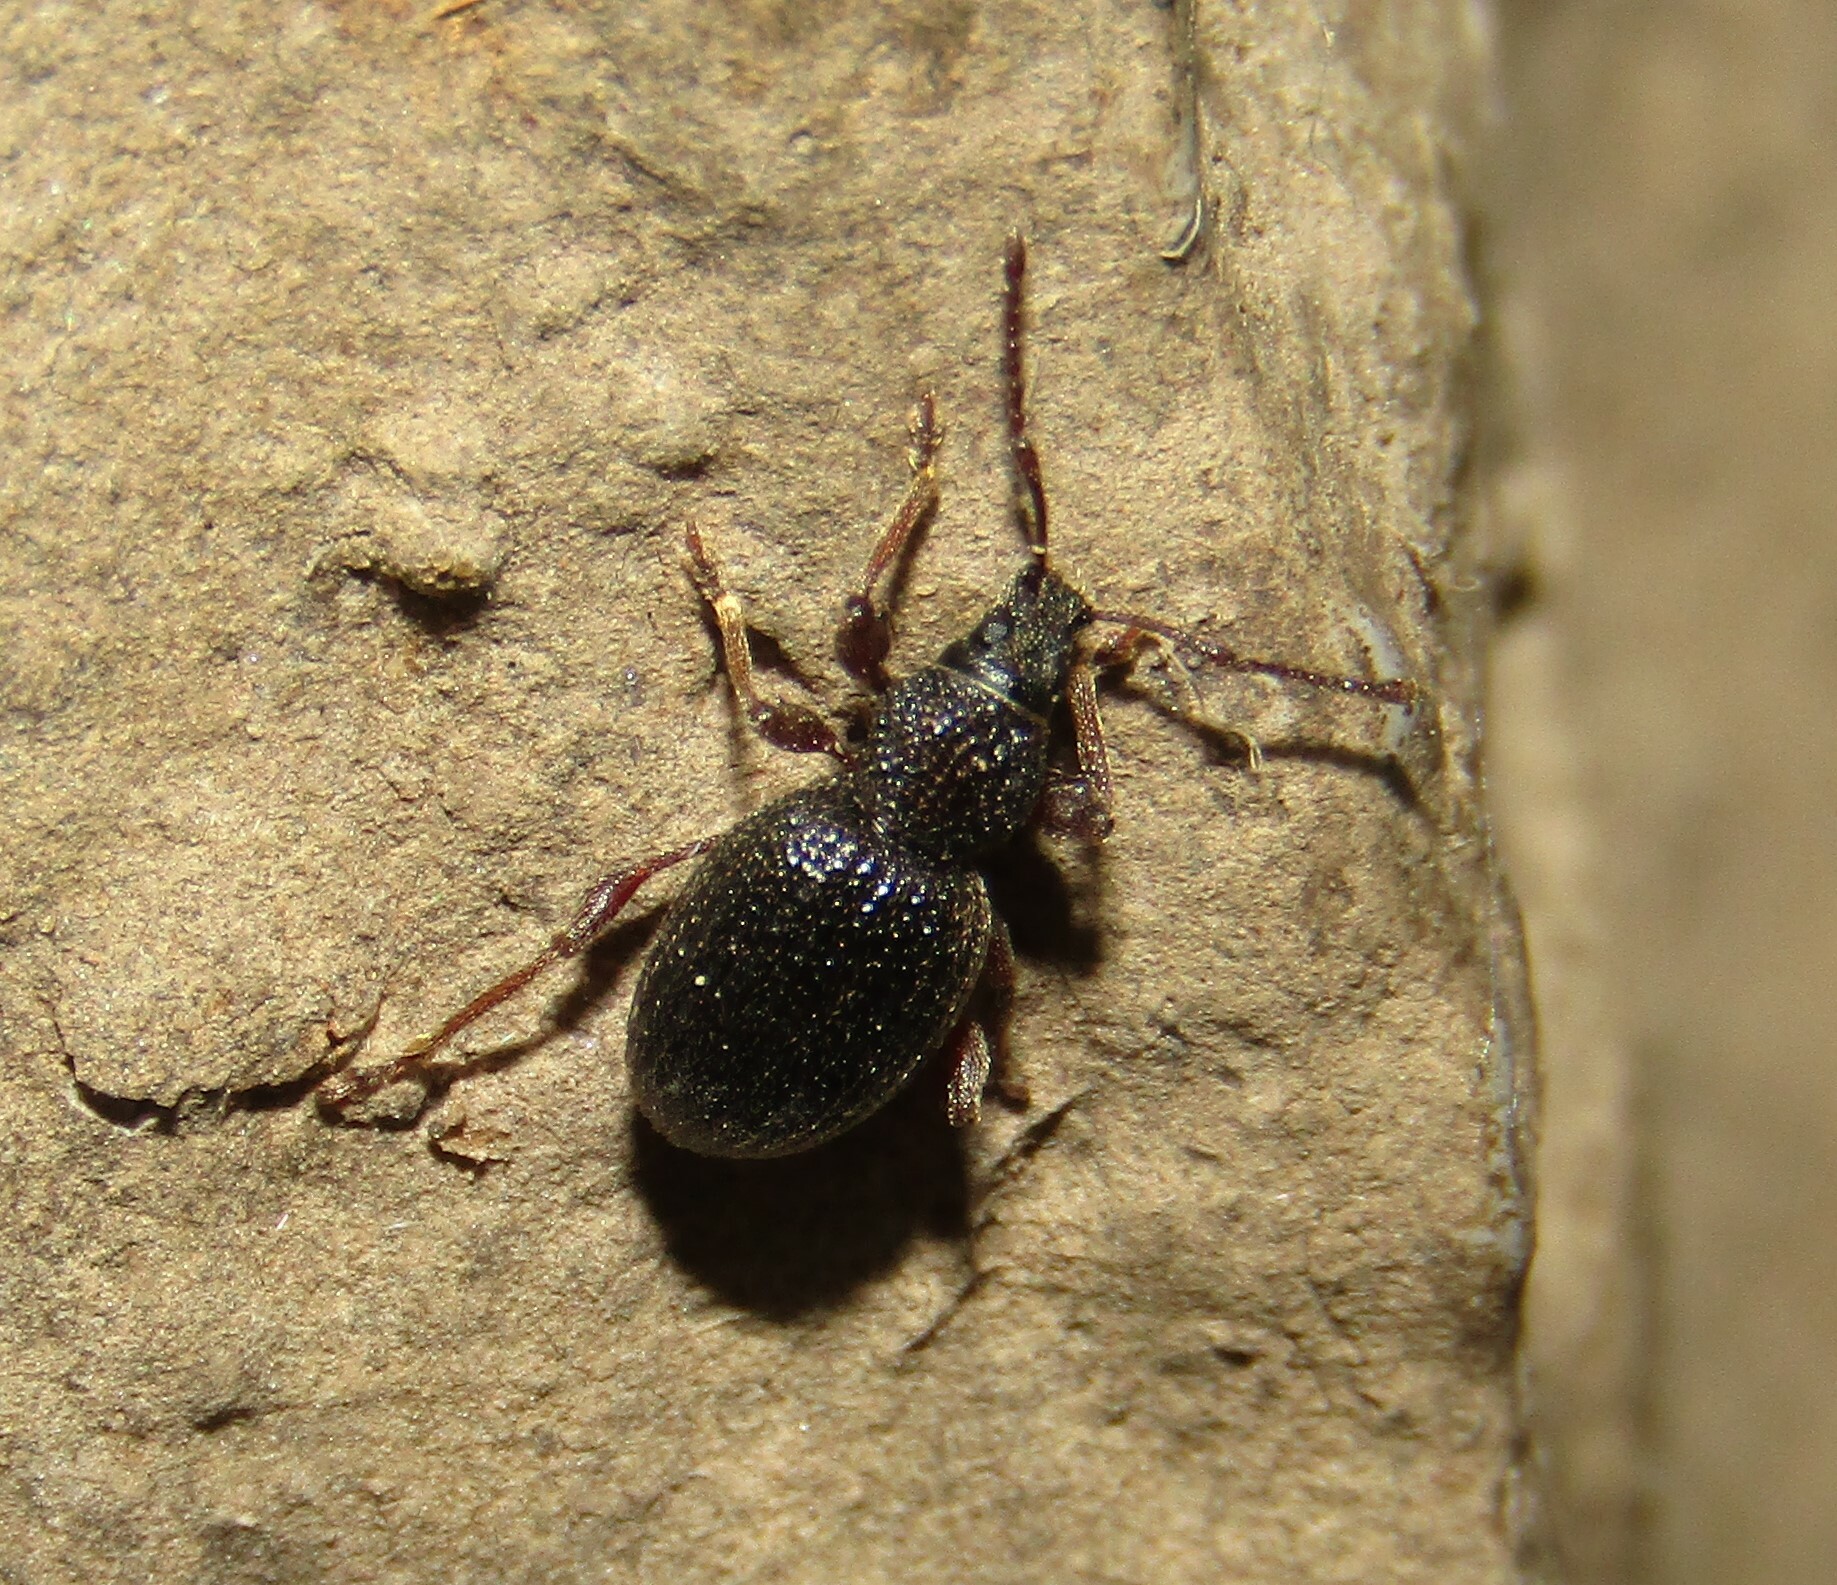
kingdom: Animalia
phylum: Arthropoda
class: Insecta
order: Coleoptera
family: Curculionidae
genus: Otiorhynchus
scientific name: Otiorhynchus ovatus
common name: Strawberry root weevil
